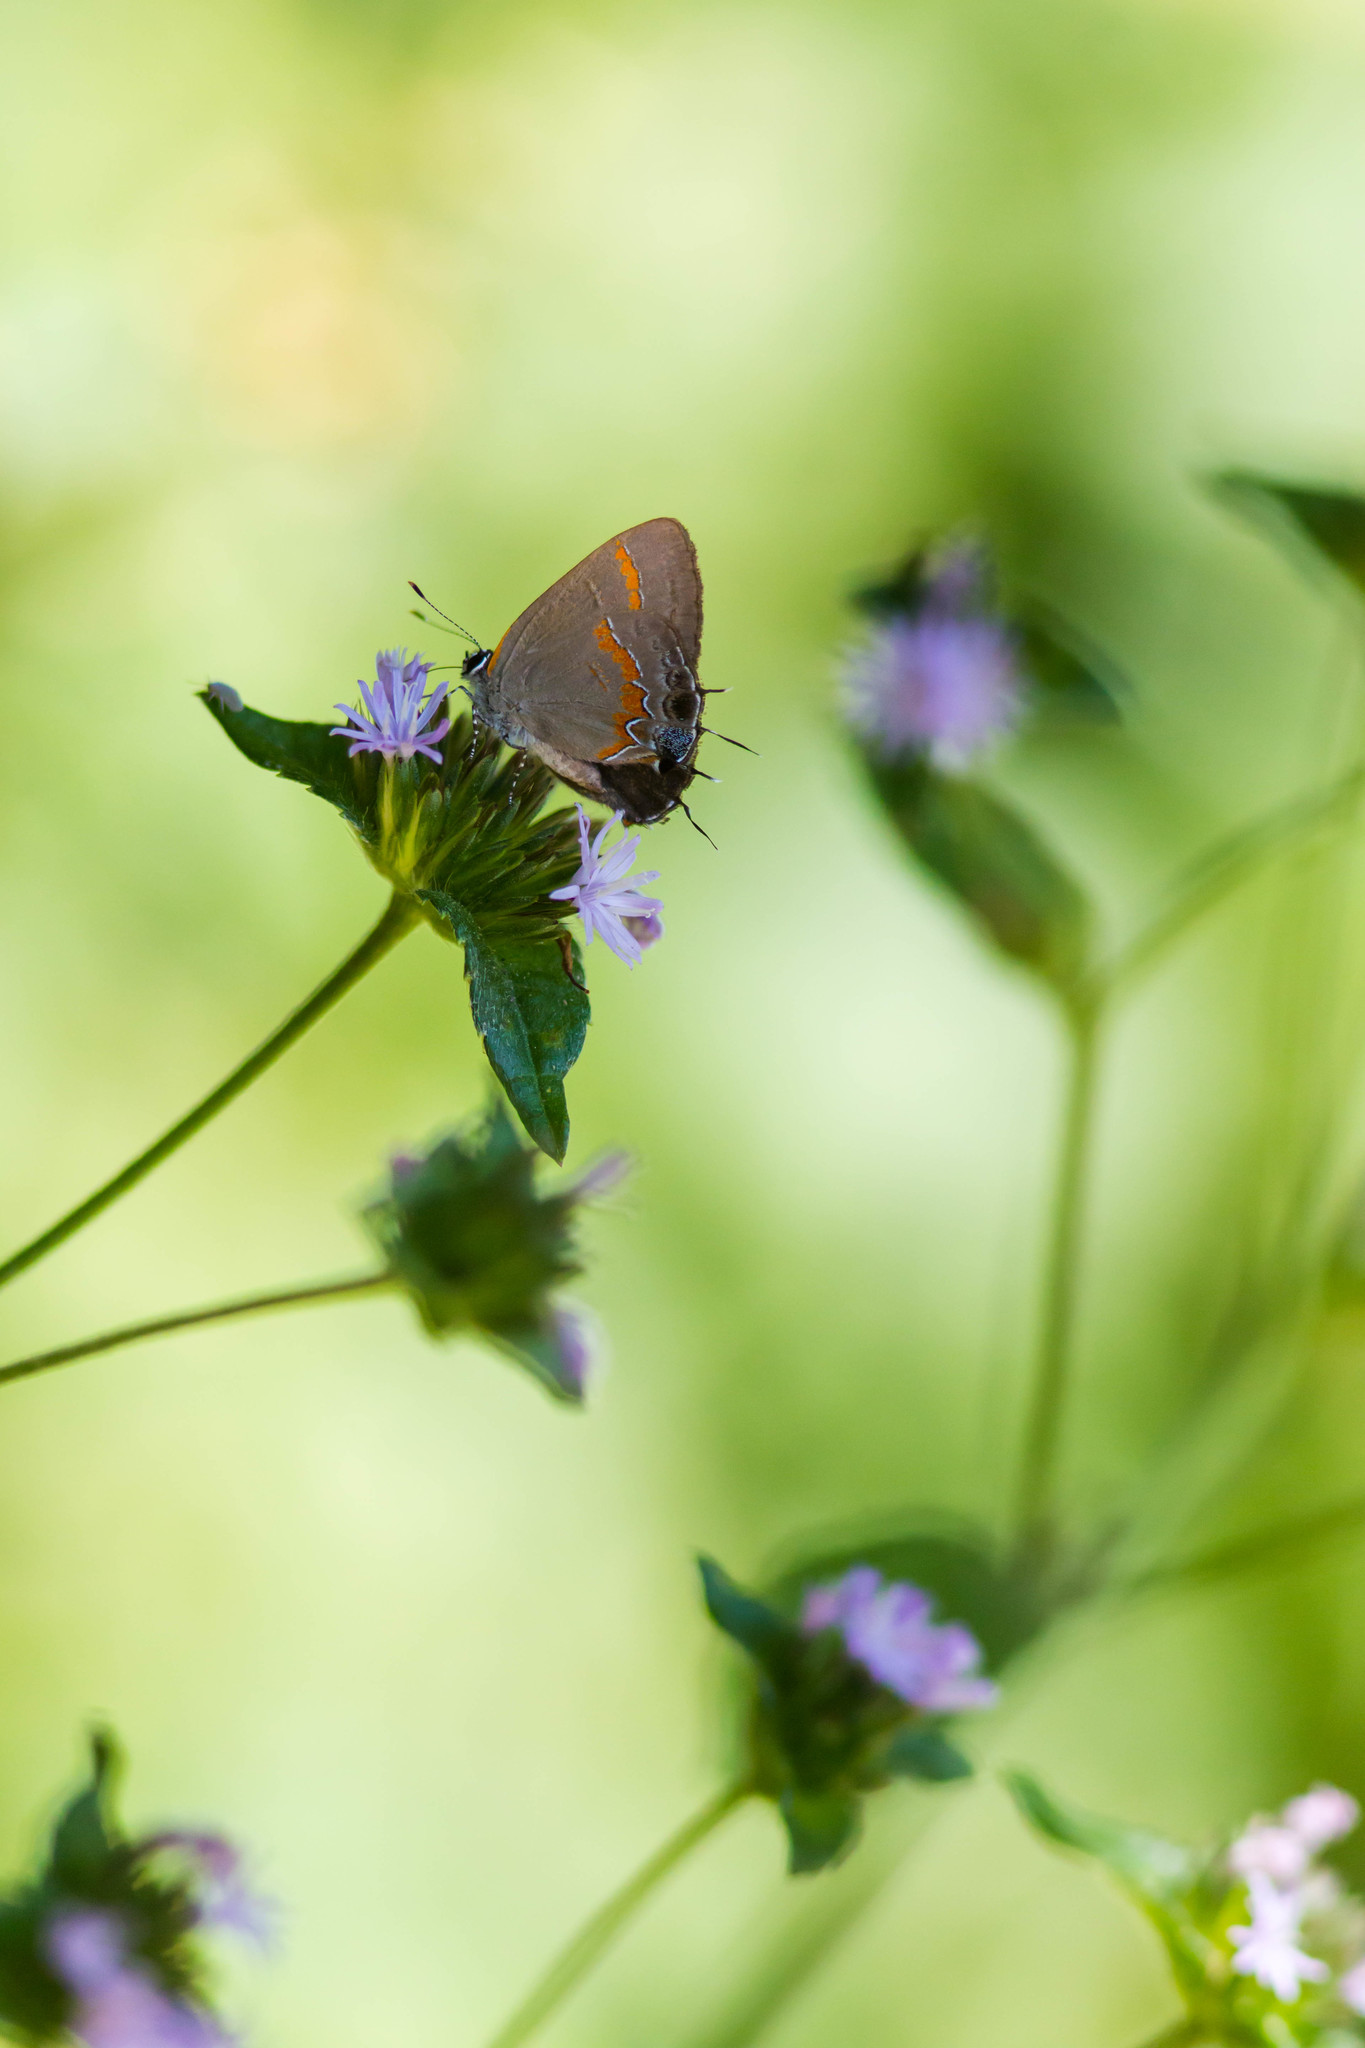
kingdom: Animalia
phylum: Arthropoda
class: Insecta
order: Lepidoptera
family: Lycaenidae
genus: Calycopis
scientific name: Calycopis cecrops
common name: Red-banded hairstreak
